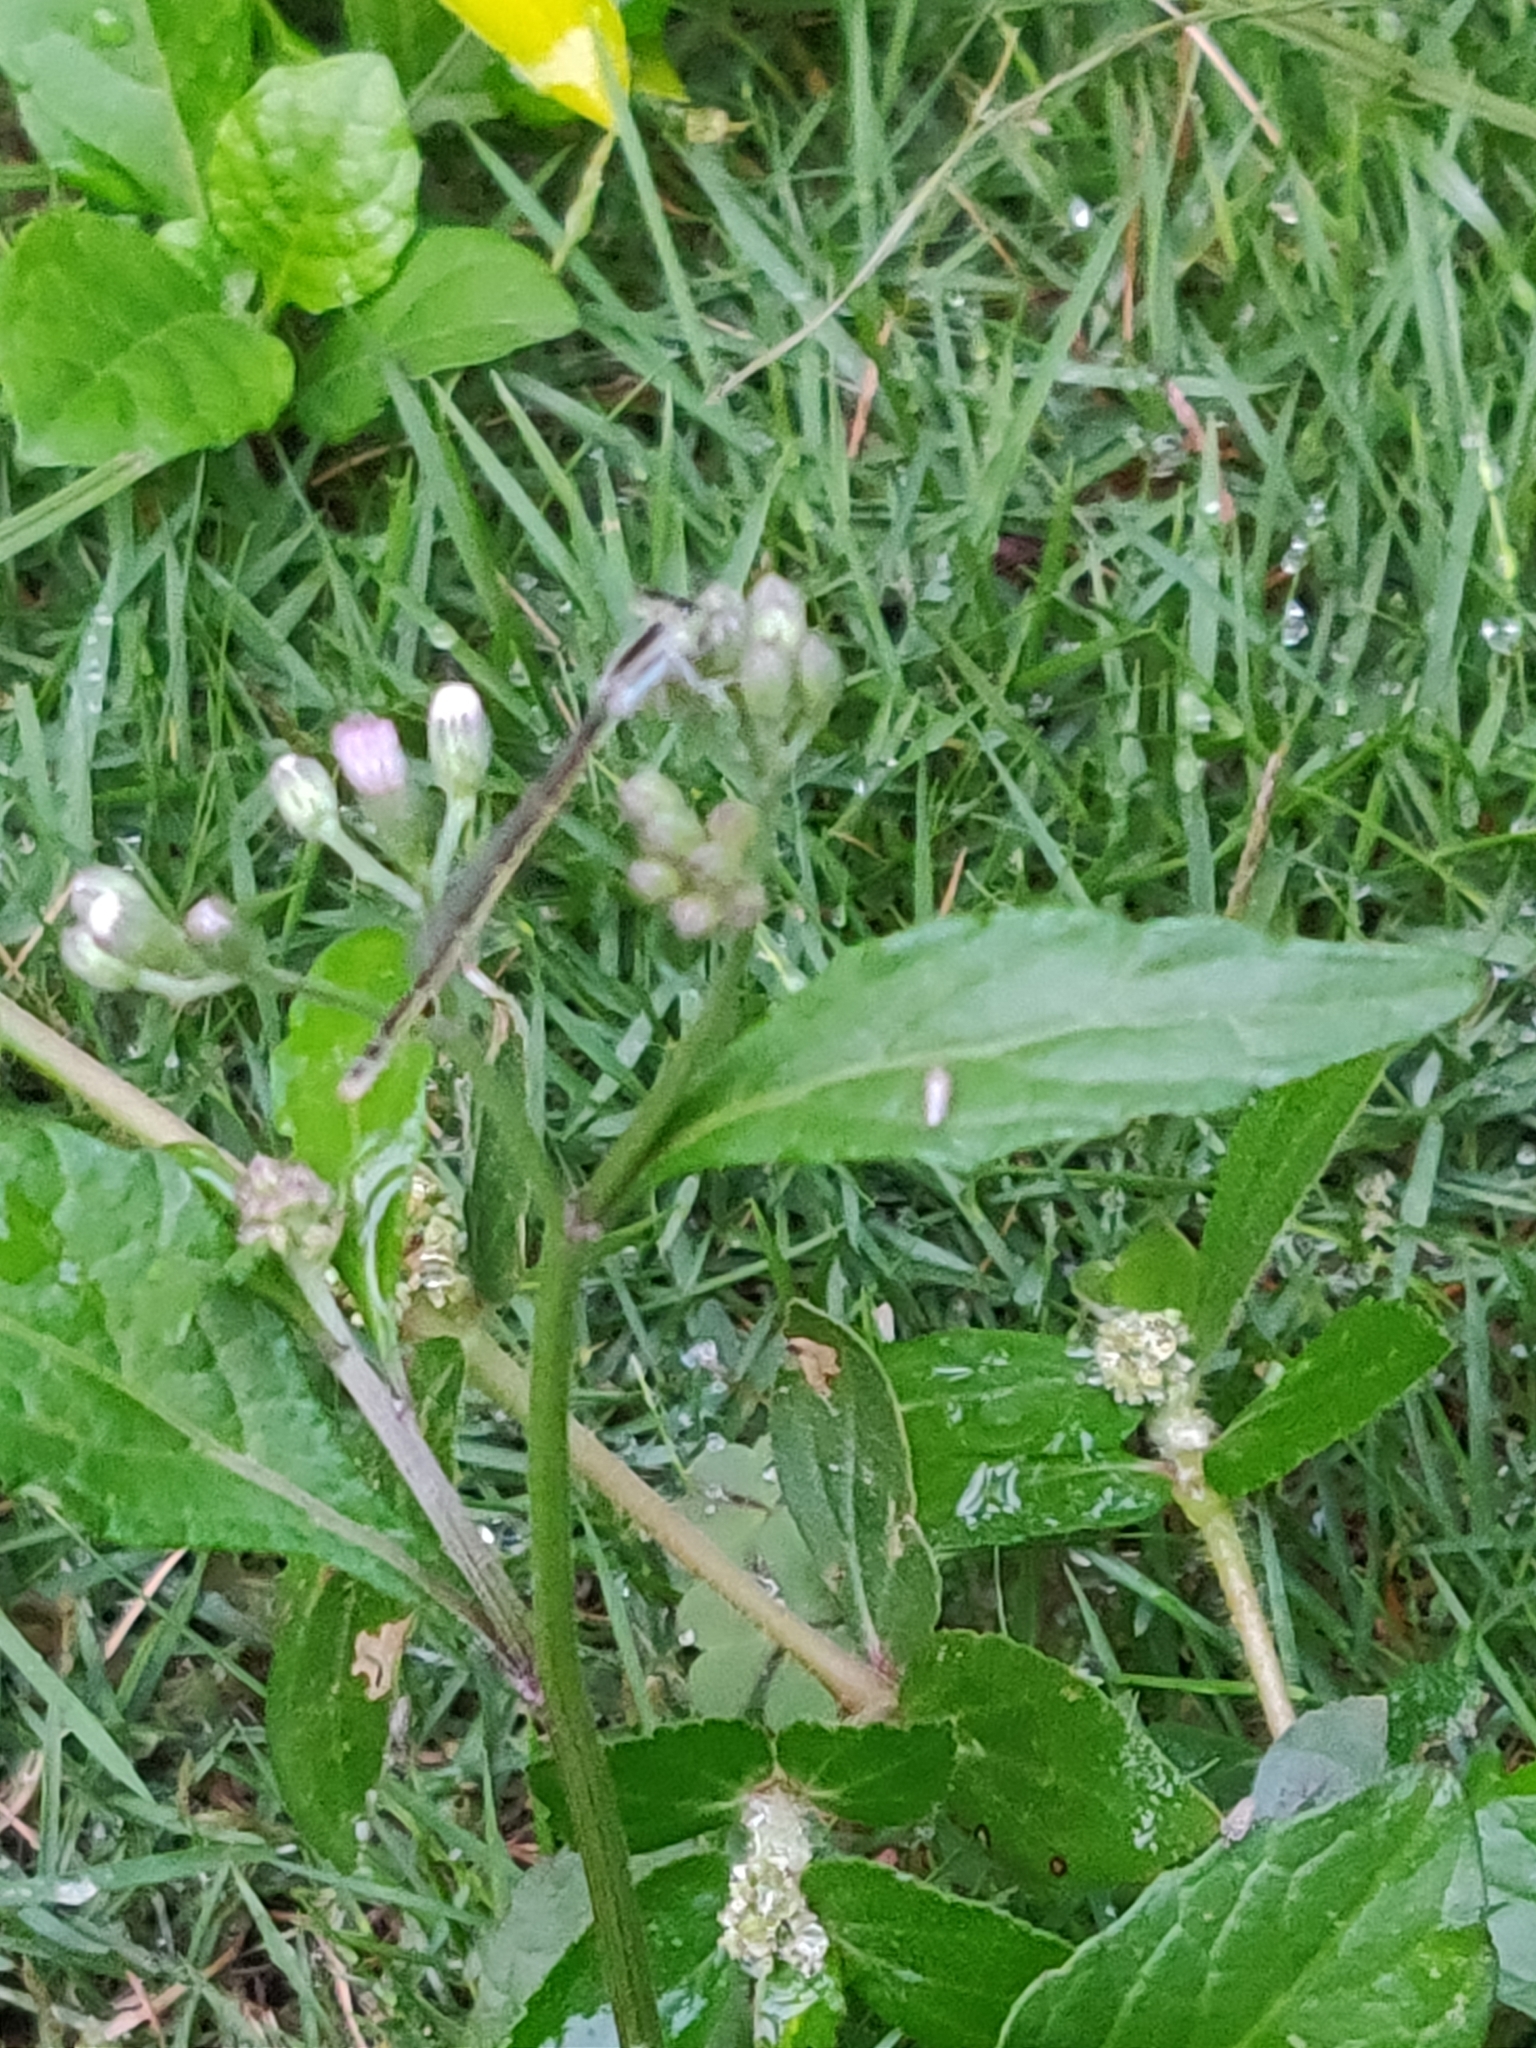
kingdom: Animalia
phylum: Arthropoda
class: Insecta
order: Odonata
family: Coenagrionidae
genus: Ischnura
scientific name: Ischnura rubilio
